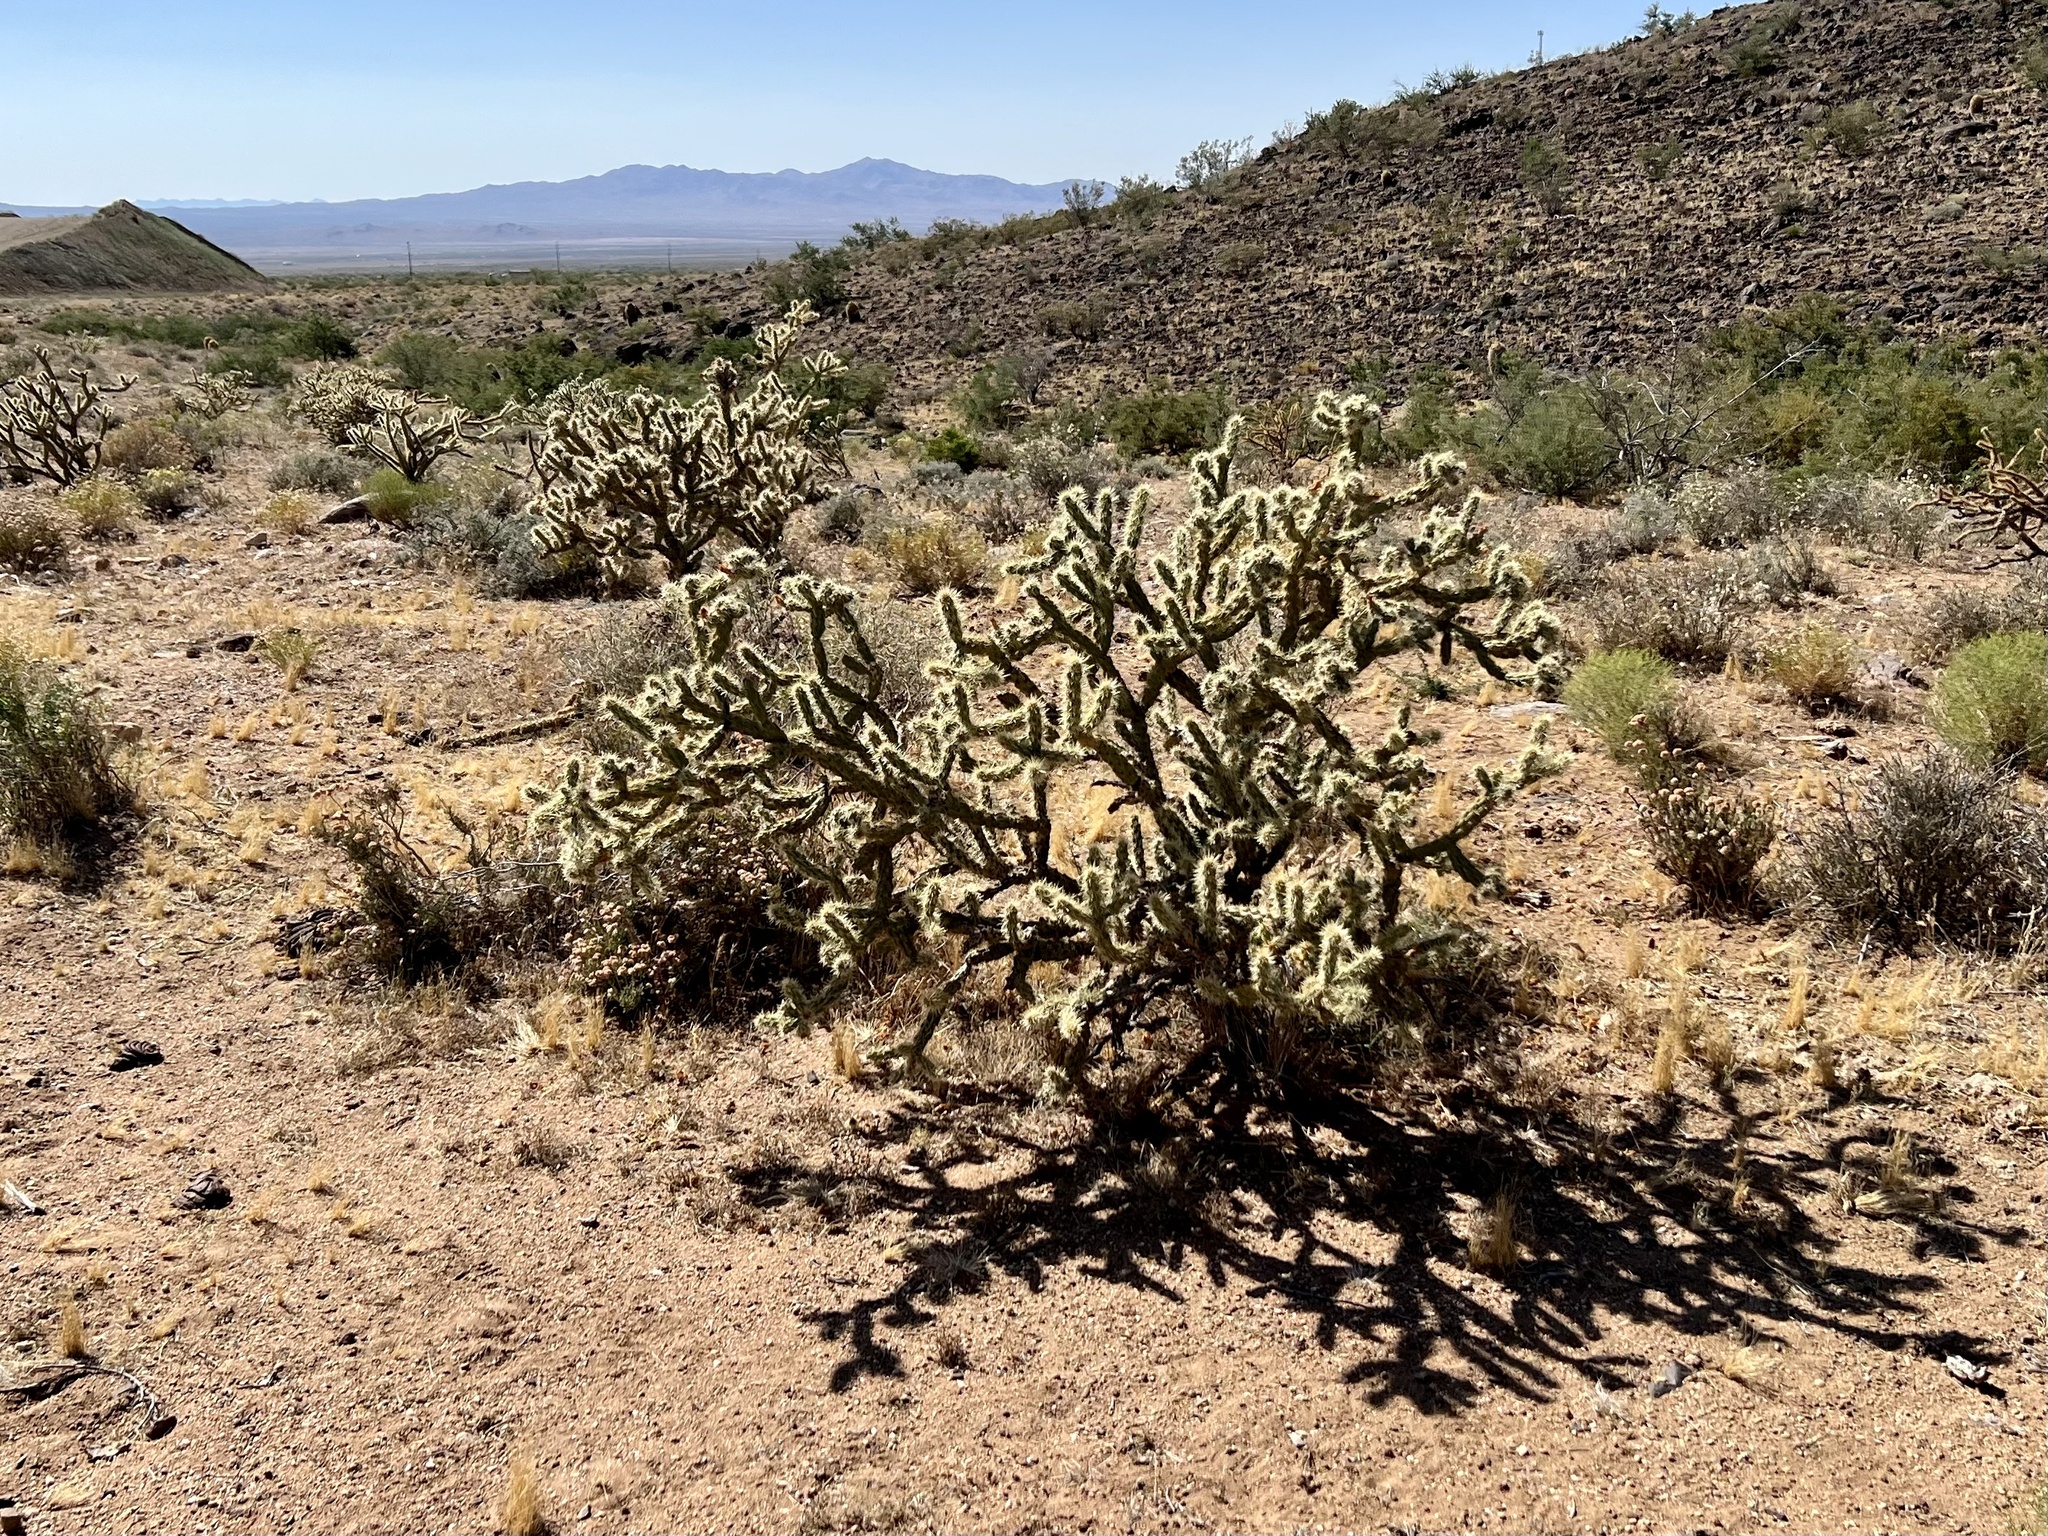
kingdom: Plantae
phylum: Tracheophyta
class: Magnoliopsida
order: Caryophyllales
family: Cactaceae
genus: Cylindropuntia
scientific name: Cylindropuntia acanthocarpa
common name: Buckhorn cholla
